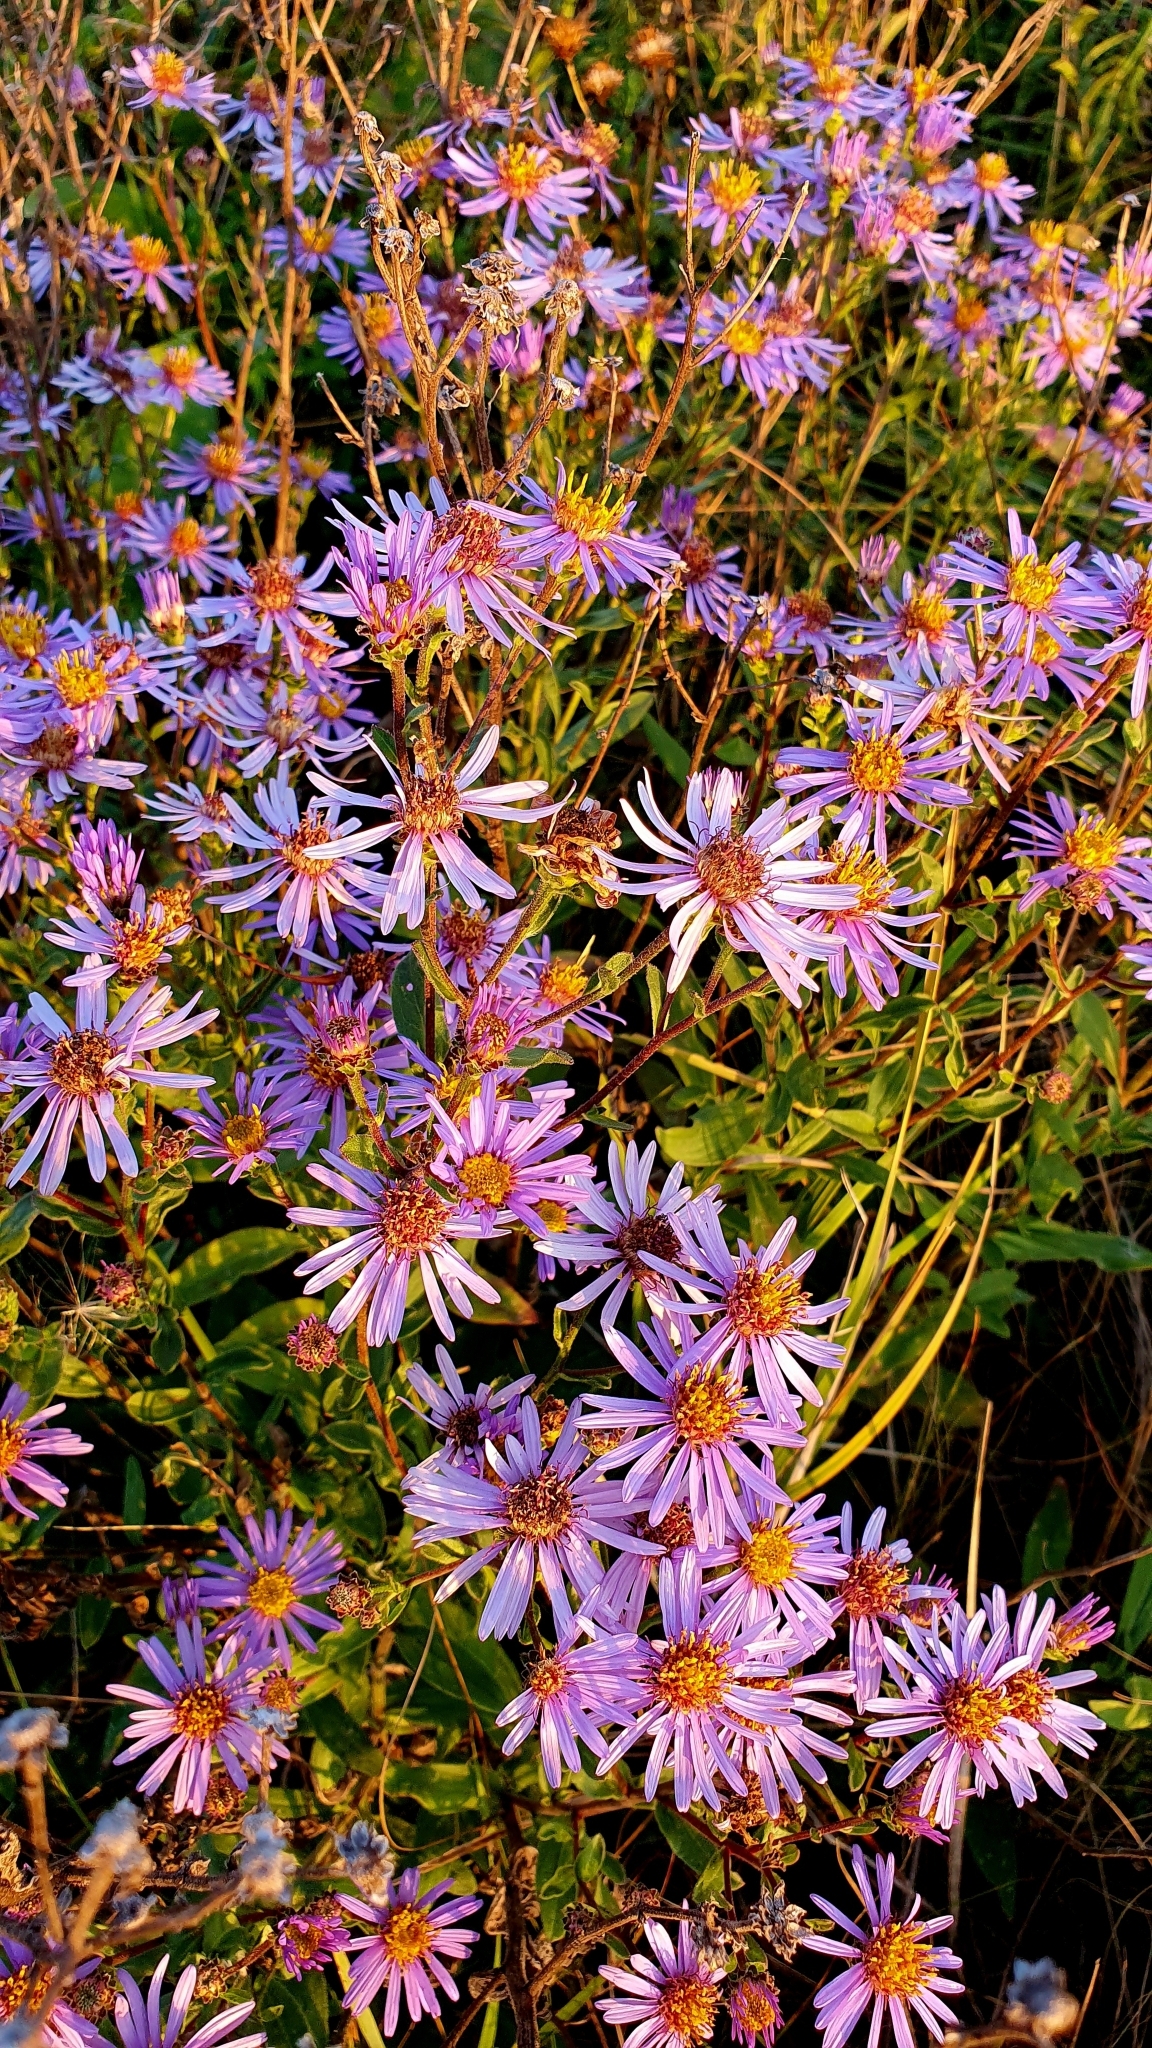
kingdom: Plantae
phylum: Tracheophyta
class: Magnoliopsida
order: Asterales
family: Asteraceae
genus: Aster
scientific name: Aster amellus
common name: European michaelmas daisy
